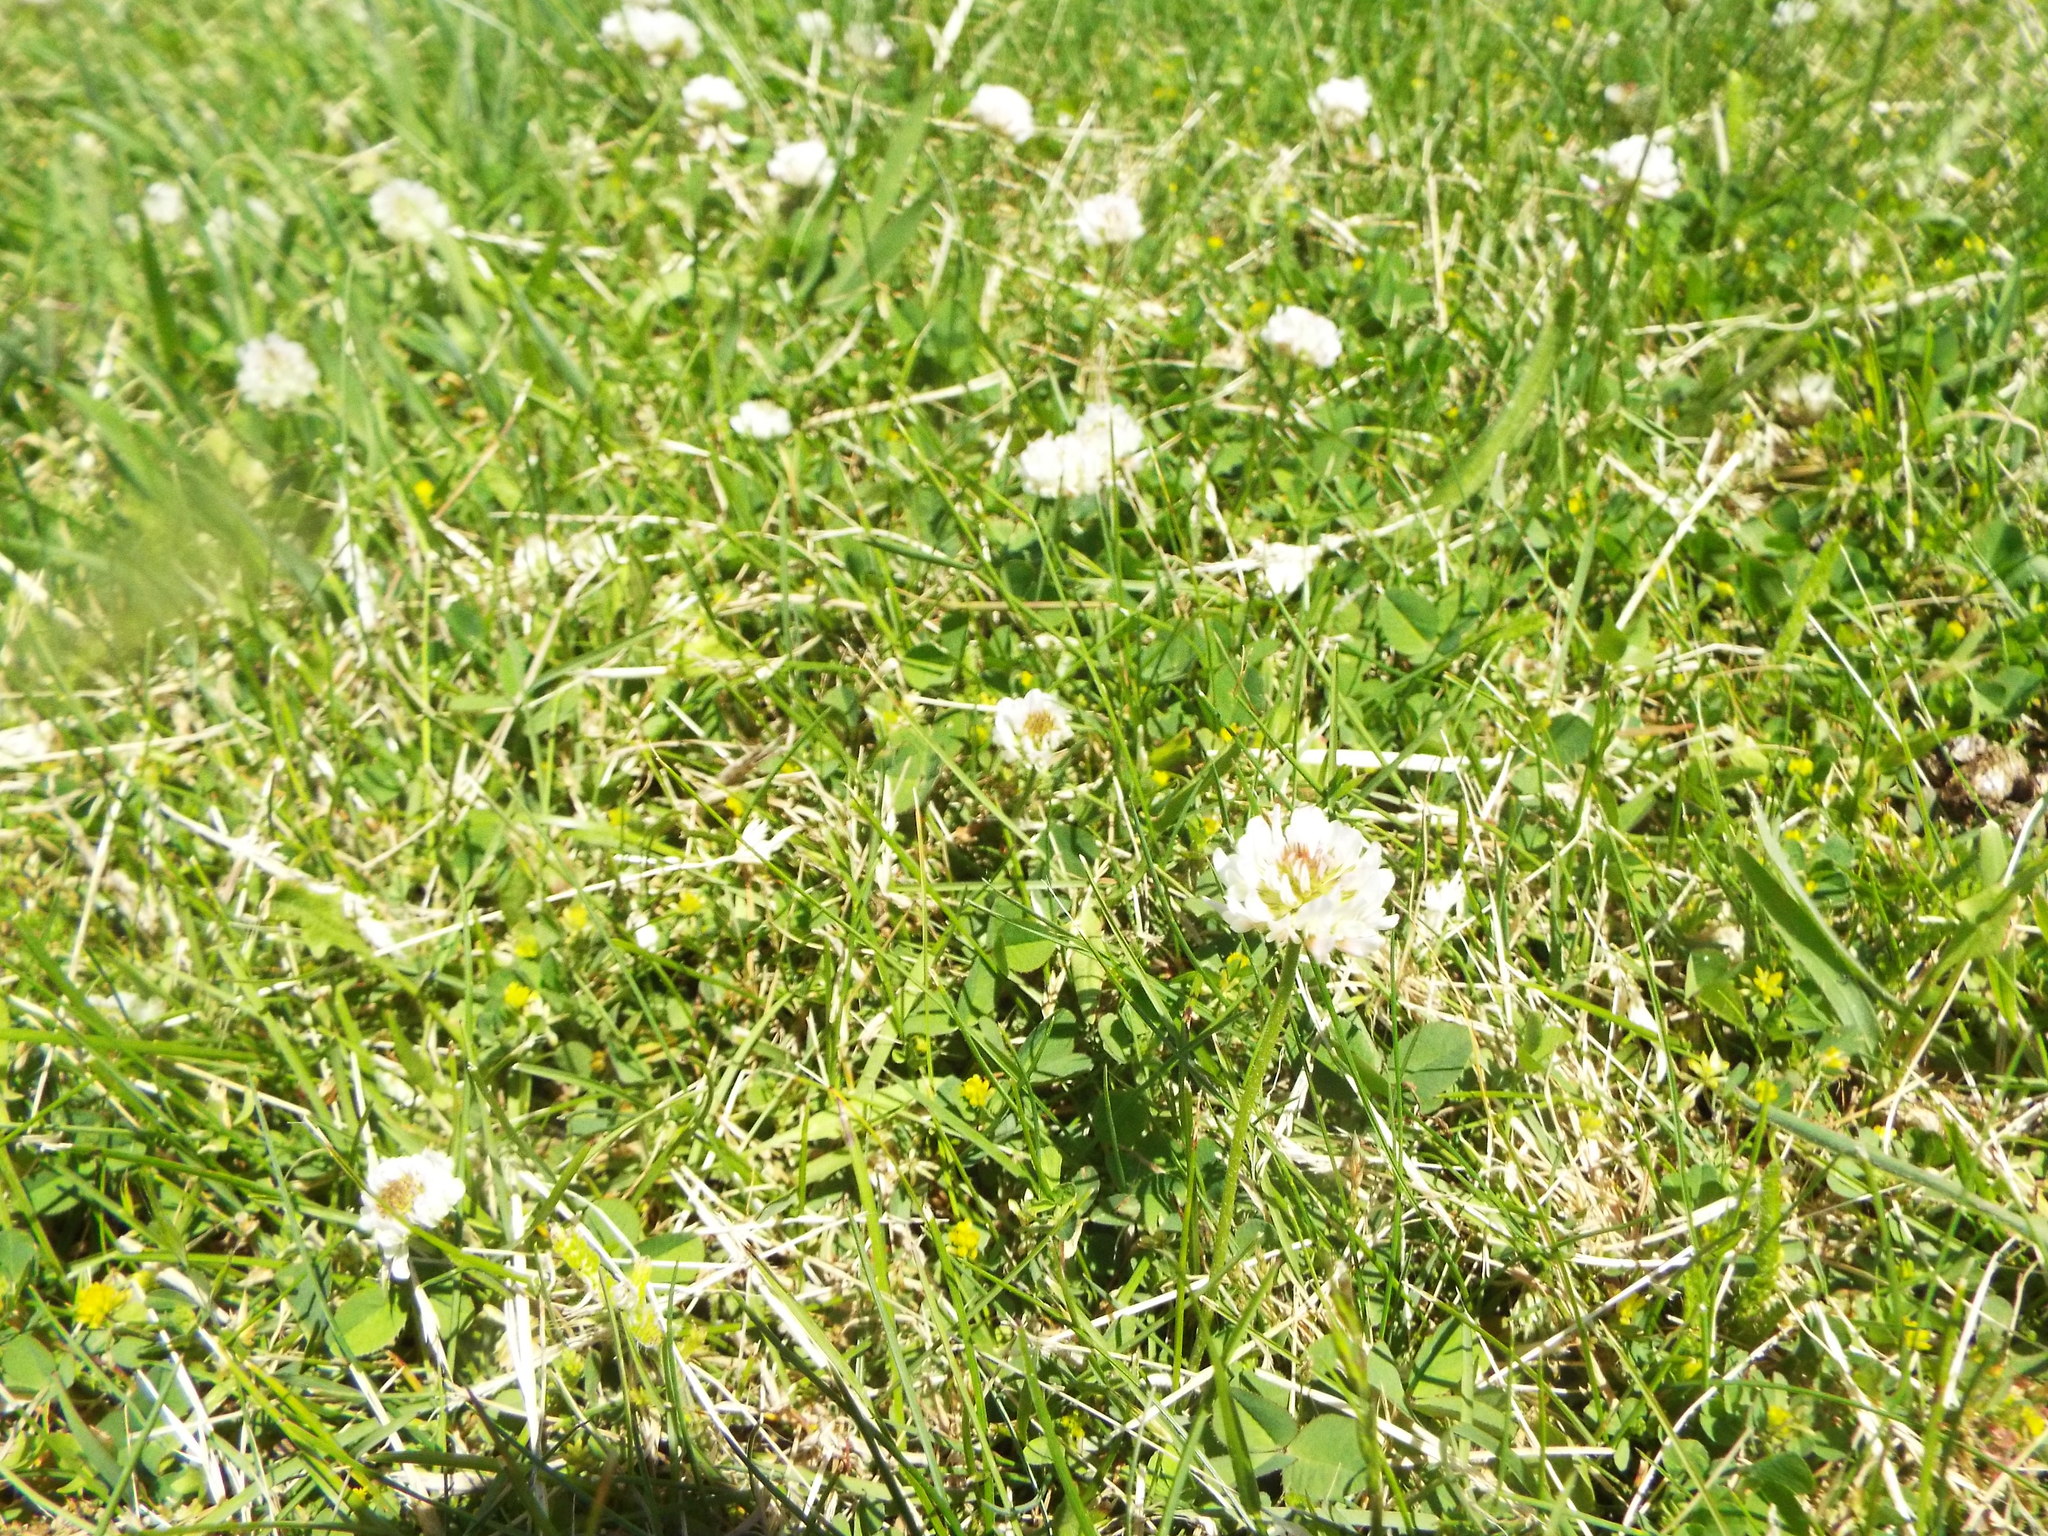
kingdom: Plantae
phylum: Tracheophyta
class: Magnoliopsida
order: Fabales
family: Fabaceae
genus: Trifolium
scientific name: Trifolium repens
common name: White clover
